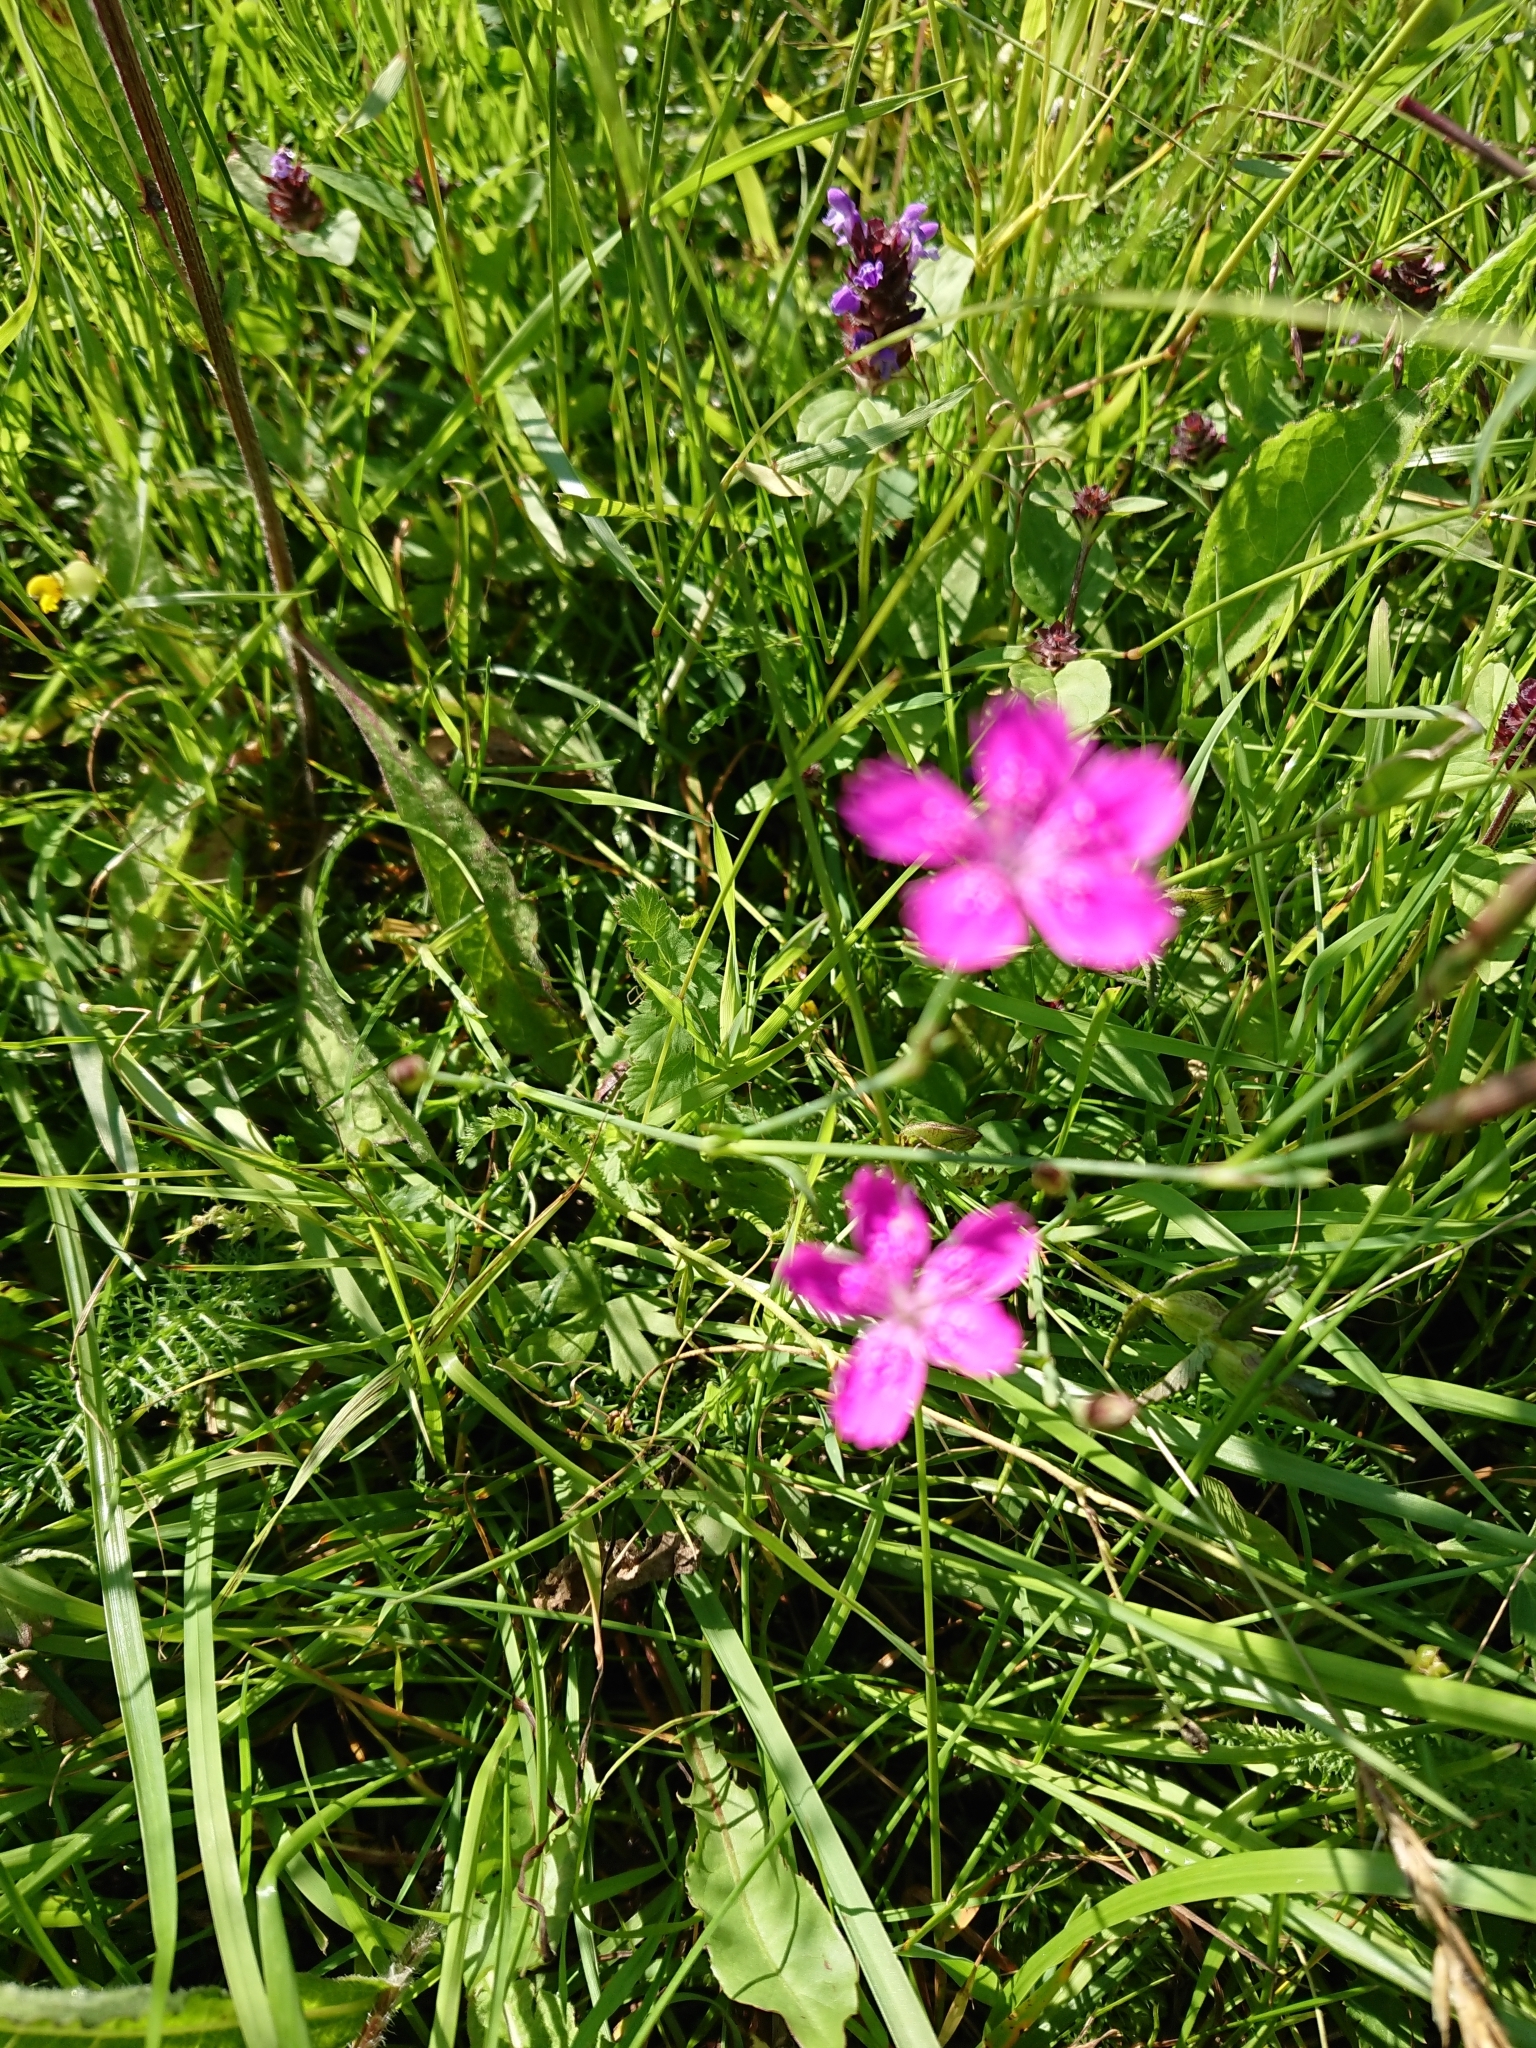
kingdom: Plantae
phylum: Tracheophyta
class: Magnoliopsida
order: Caryophyllales
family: Caryophyllaceae
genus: Dianthus
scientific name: Dianthus deltoides
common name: Maiden pink
